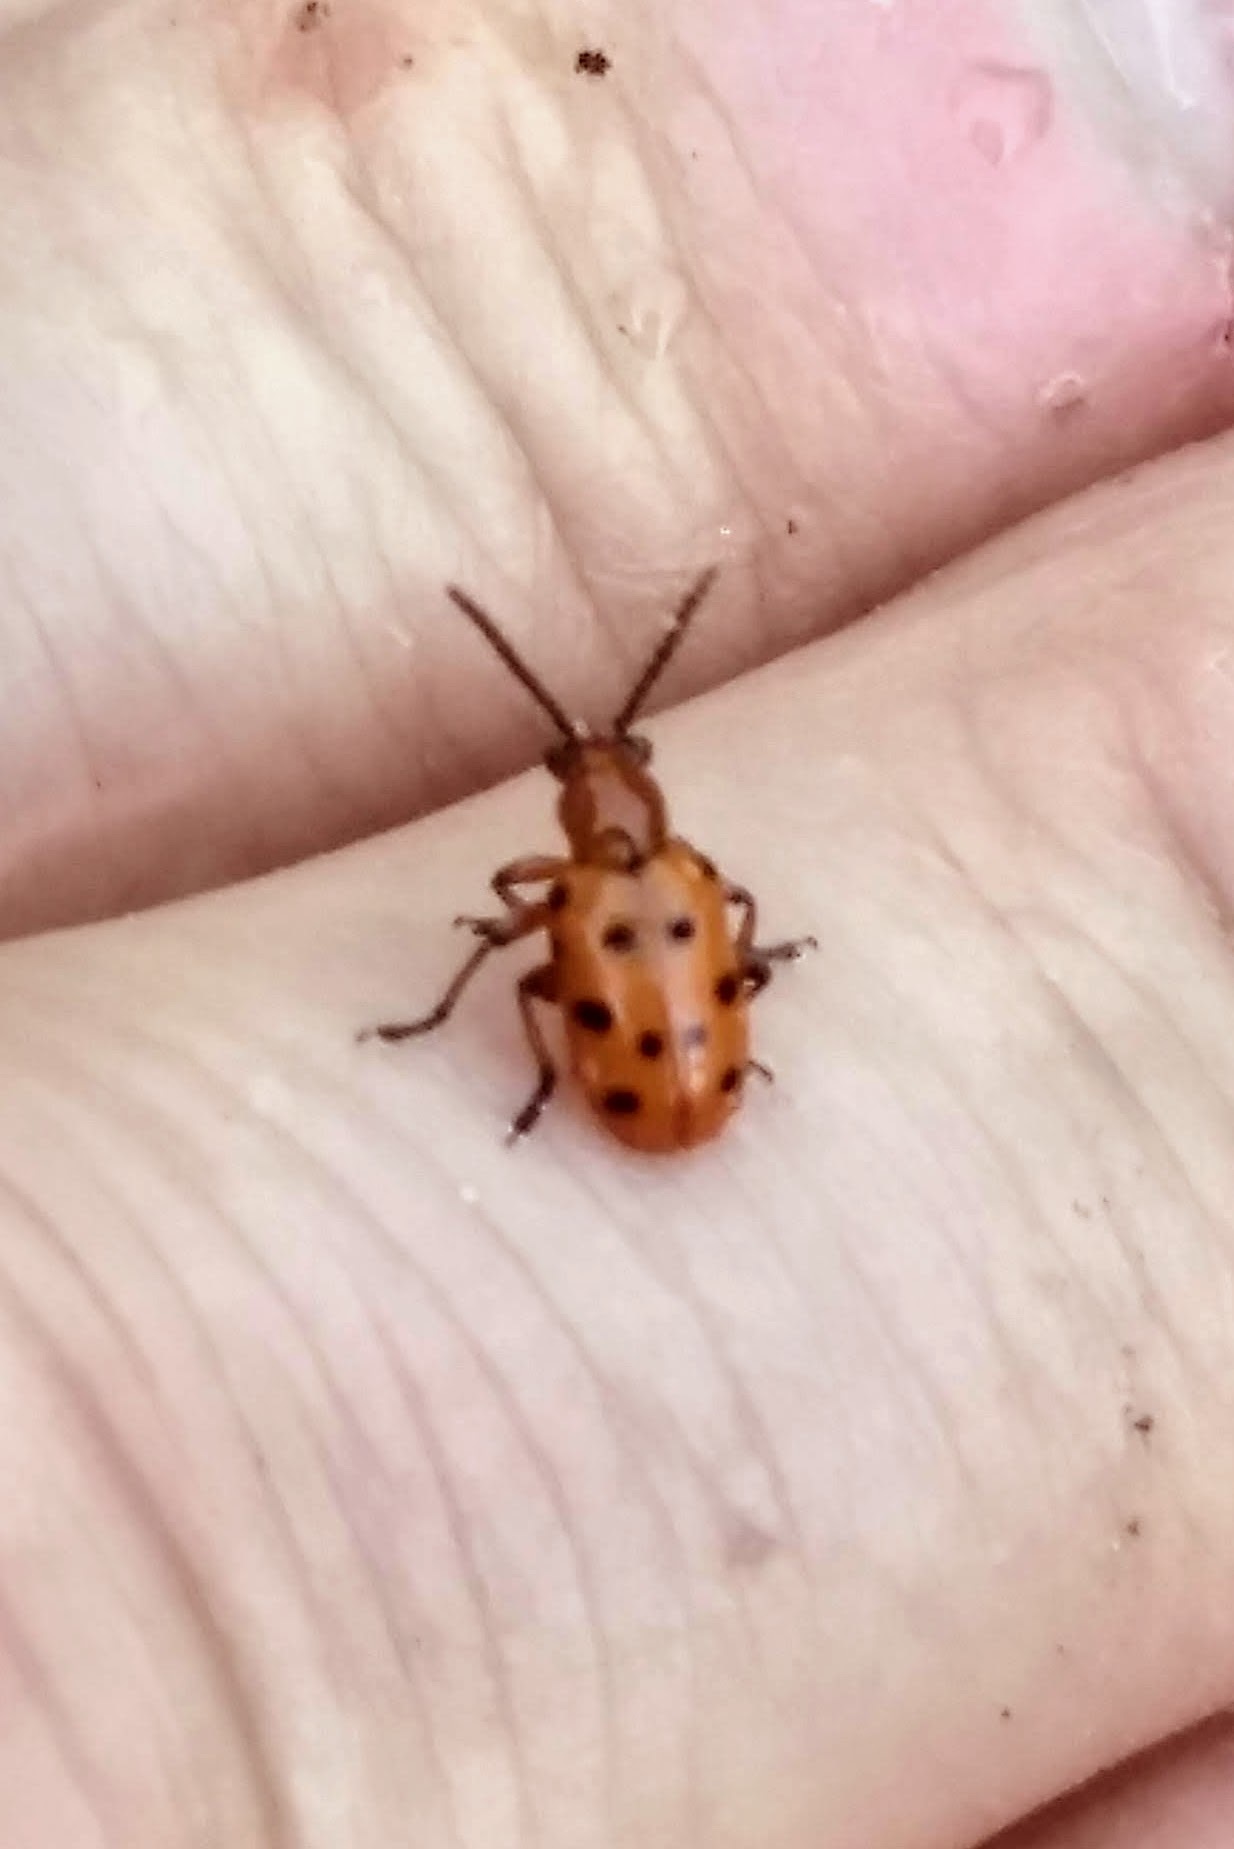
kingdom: Animalia
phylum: Arthropoda
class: Insecta
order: Coleoptera
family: Chrysomelidae
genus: Crioceris
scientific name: Crioceris duodecimpunctata
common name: Twelve-spotted asparagus beetle
